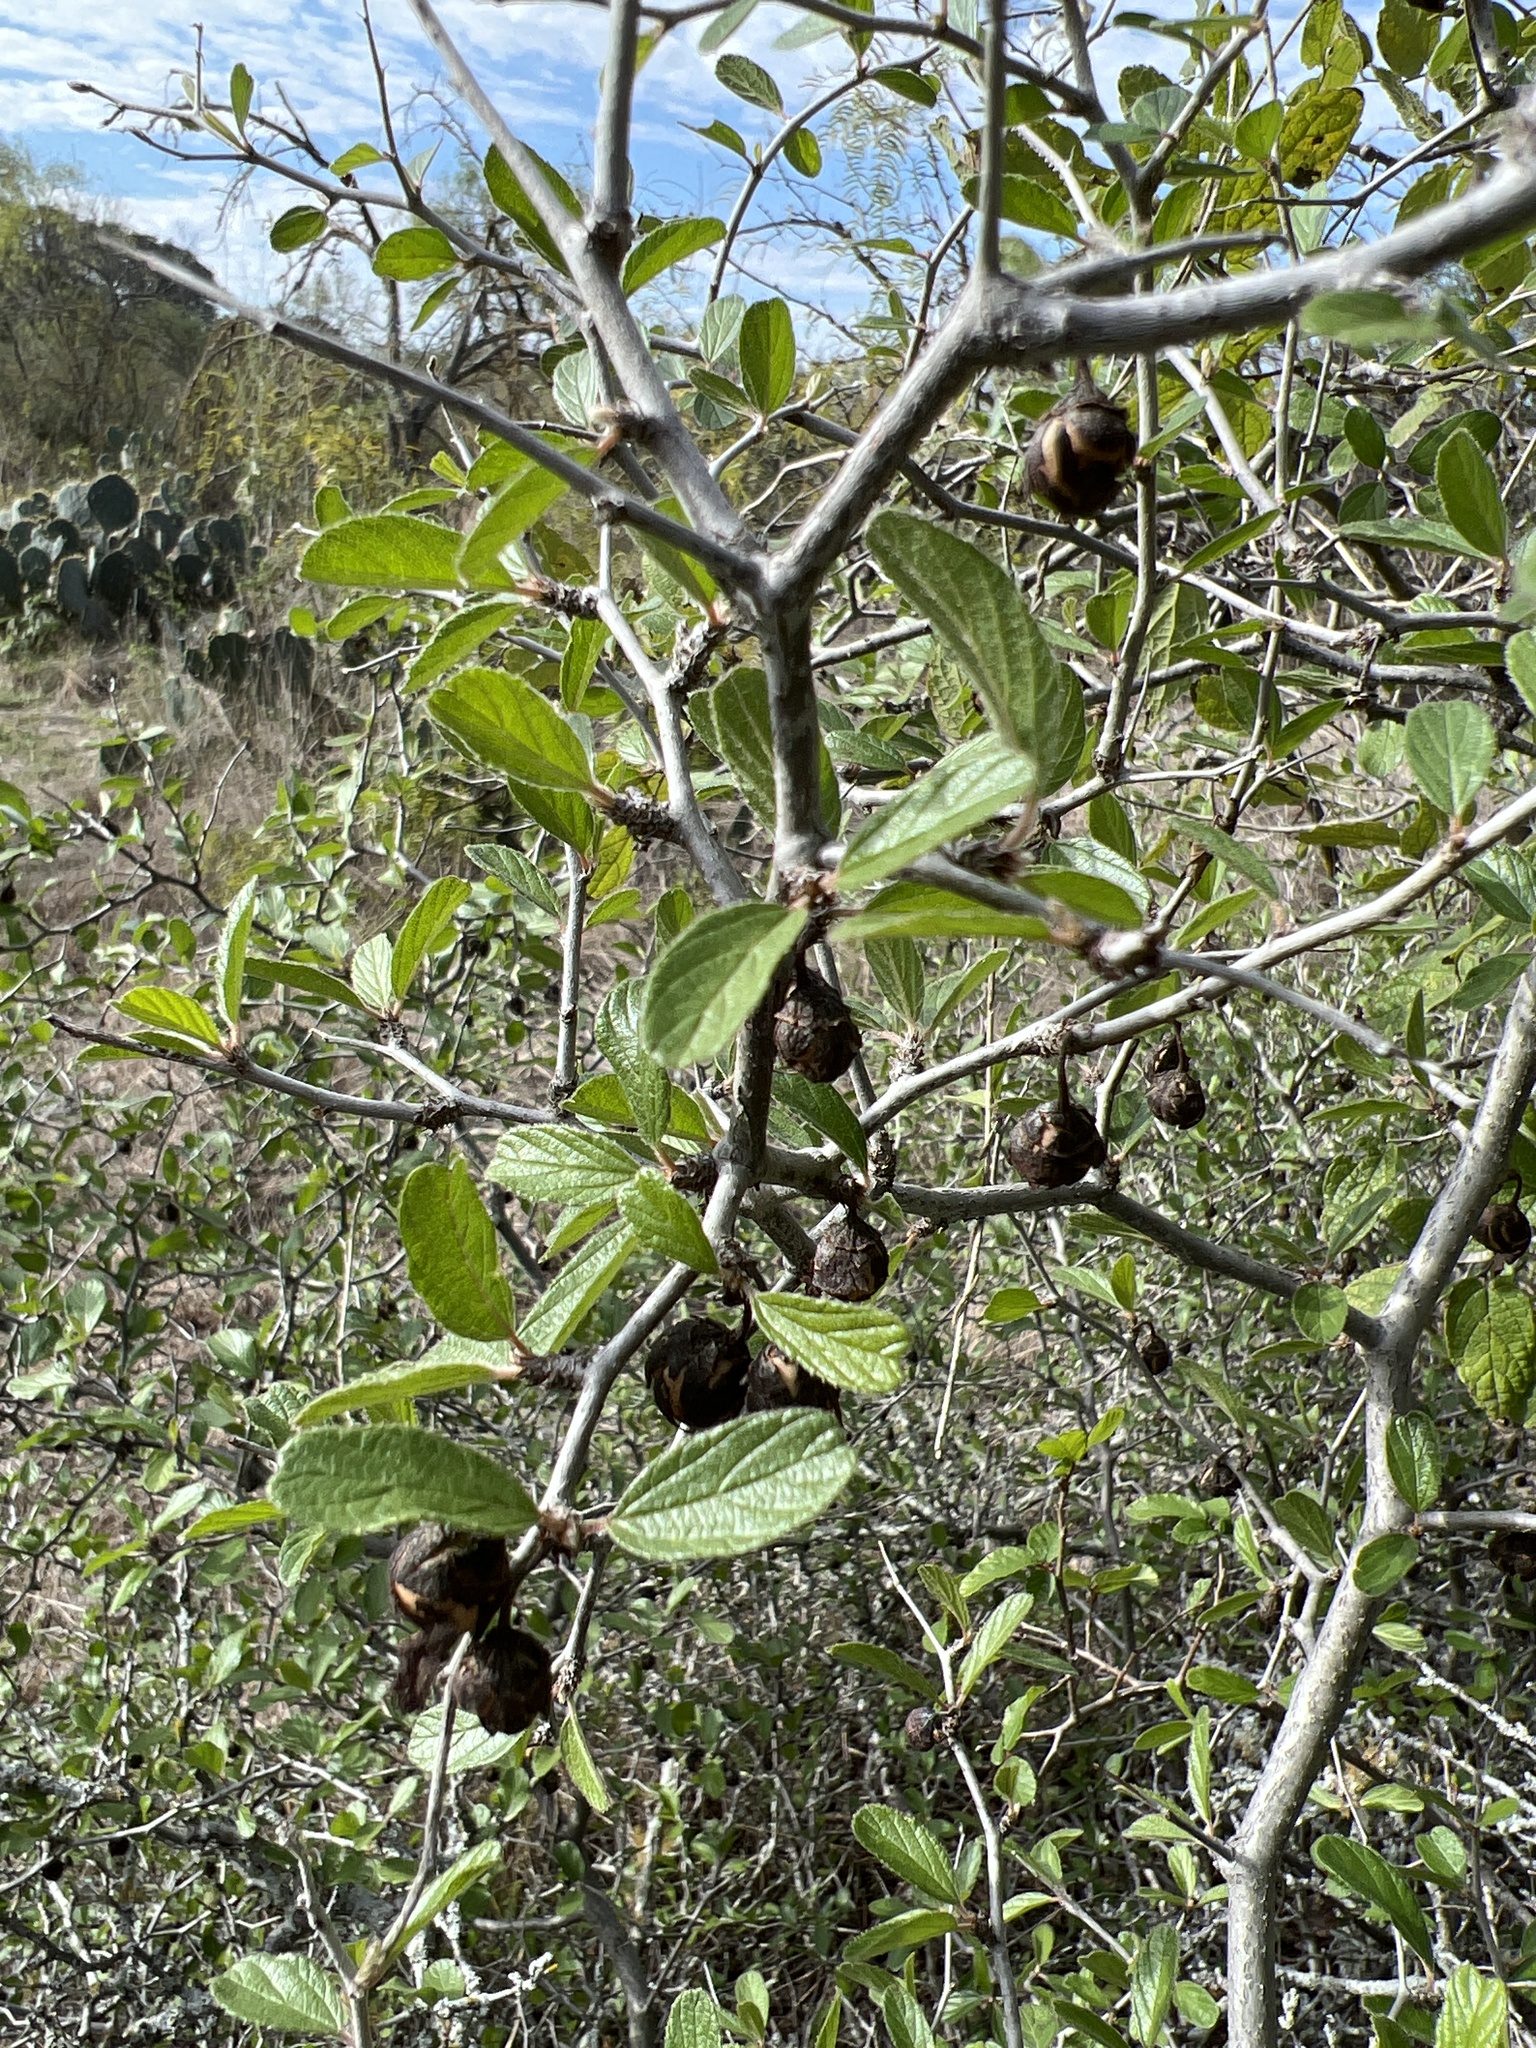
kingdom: Plantae
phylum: Tracheophyta
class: Magnoliopsida
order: Rosales
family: Rhamnaceae
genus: Colubrina
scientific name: Colubrina texensis
